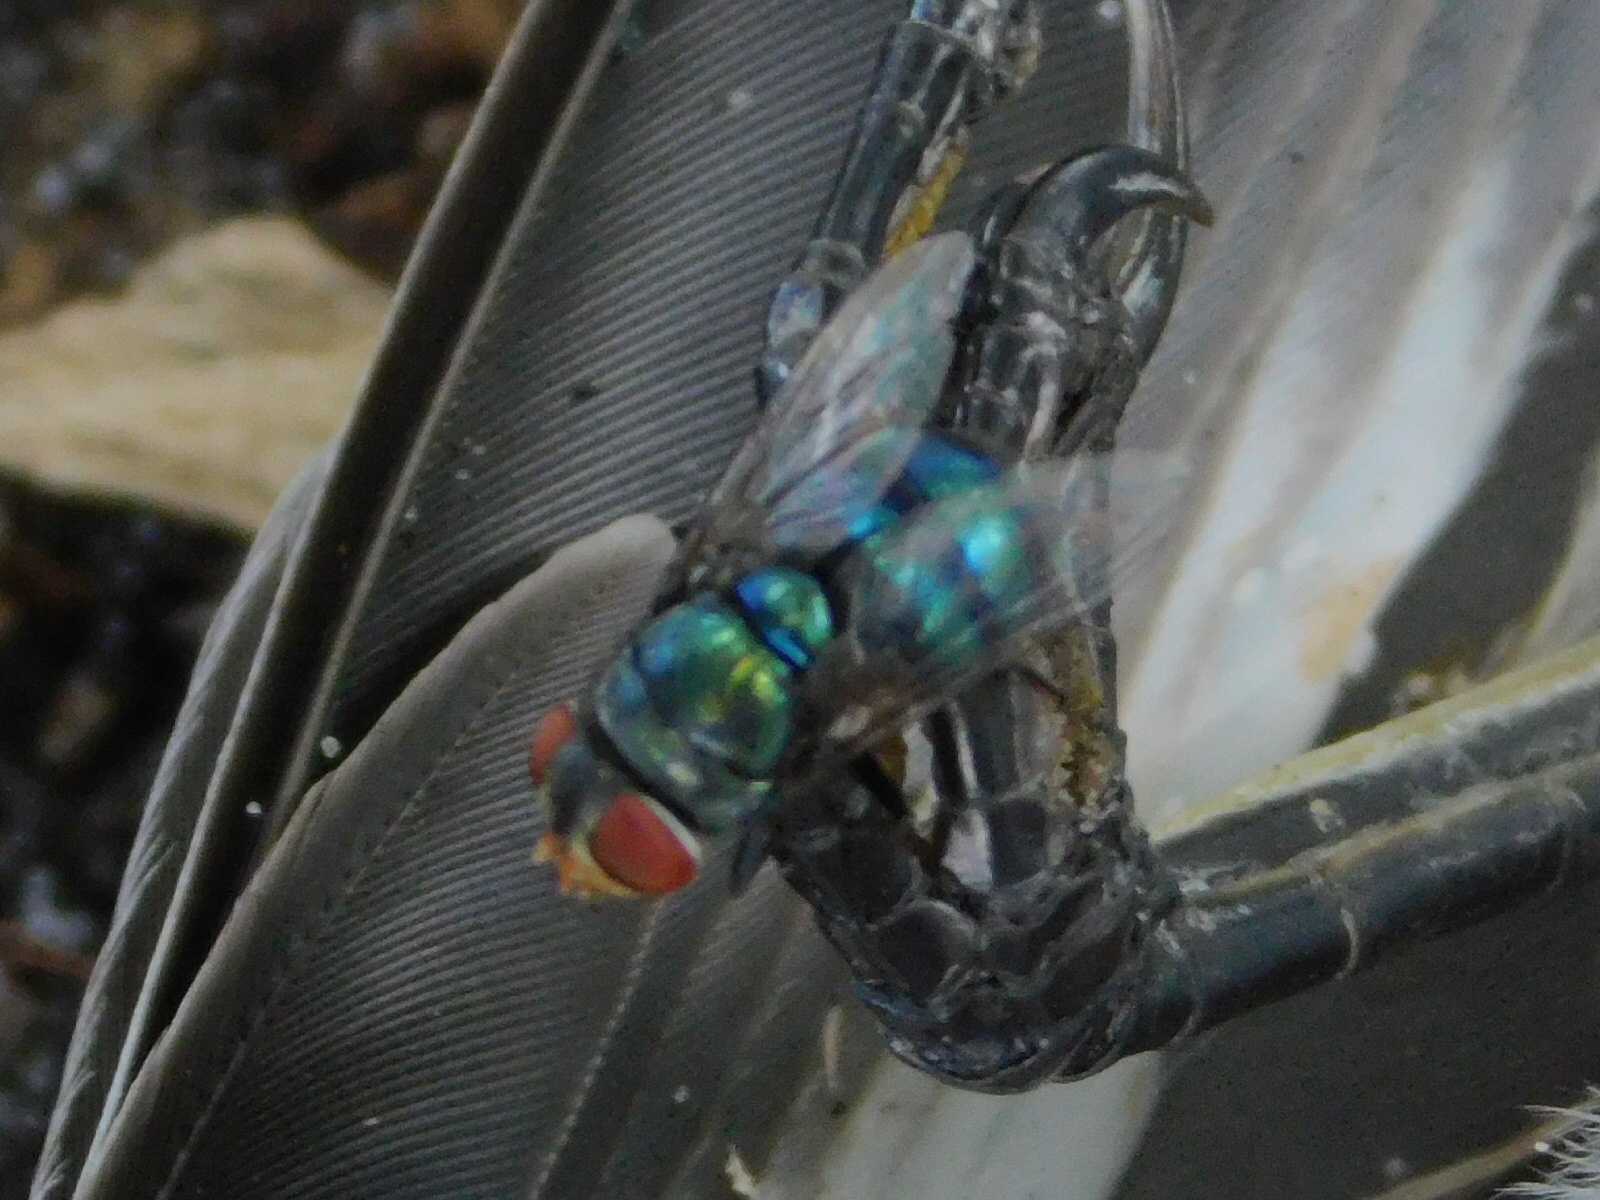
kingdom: Animalia
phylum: Arthropoda
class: Insecta
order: Diptera
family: Calliphoridae
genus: Chrysomya
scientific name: Chrysomya megacephala
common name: Blow fly
